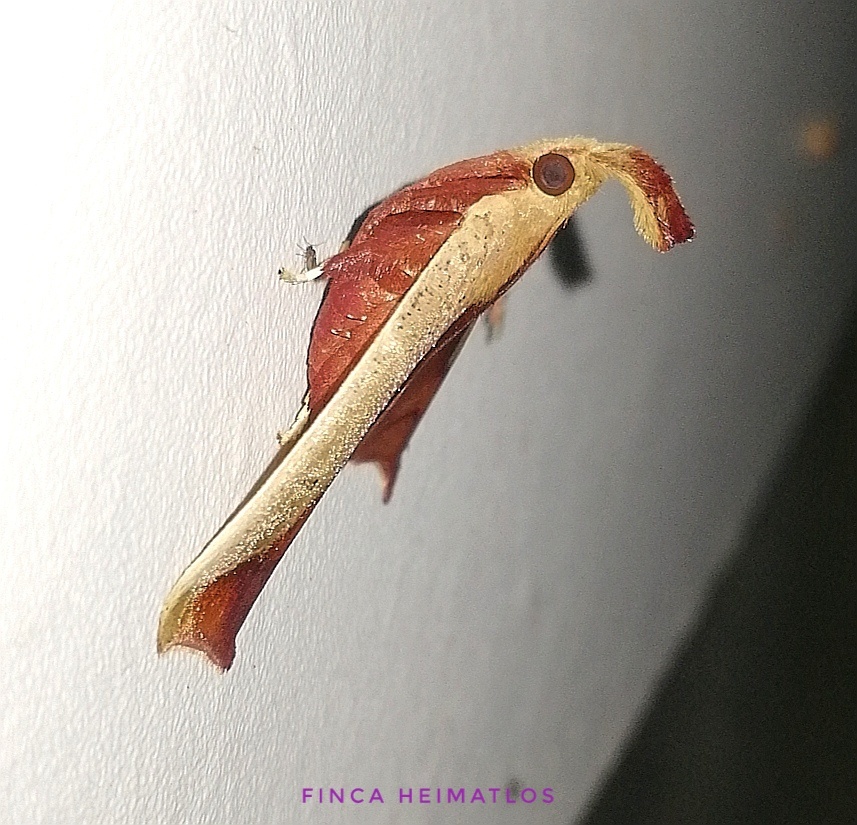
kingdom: Animalia
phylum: Arthropoda
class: Insecta
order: Lepidoptera
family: Pyralidae
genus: Arbinia
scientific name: Arbinia todilla
